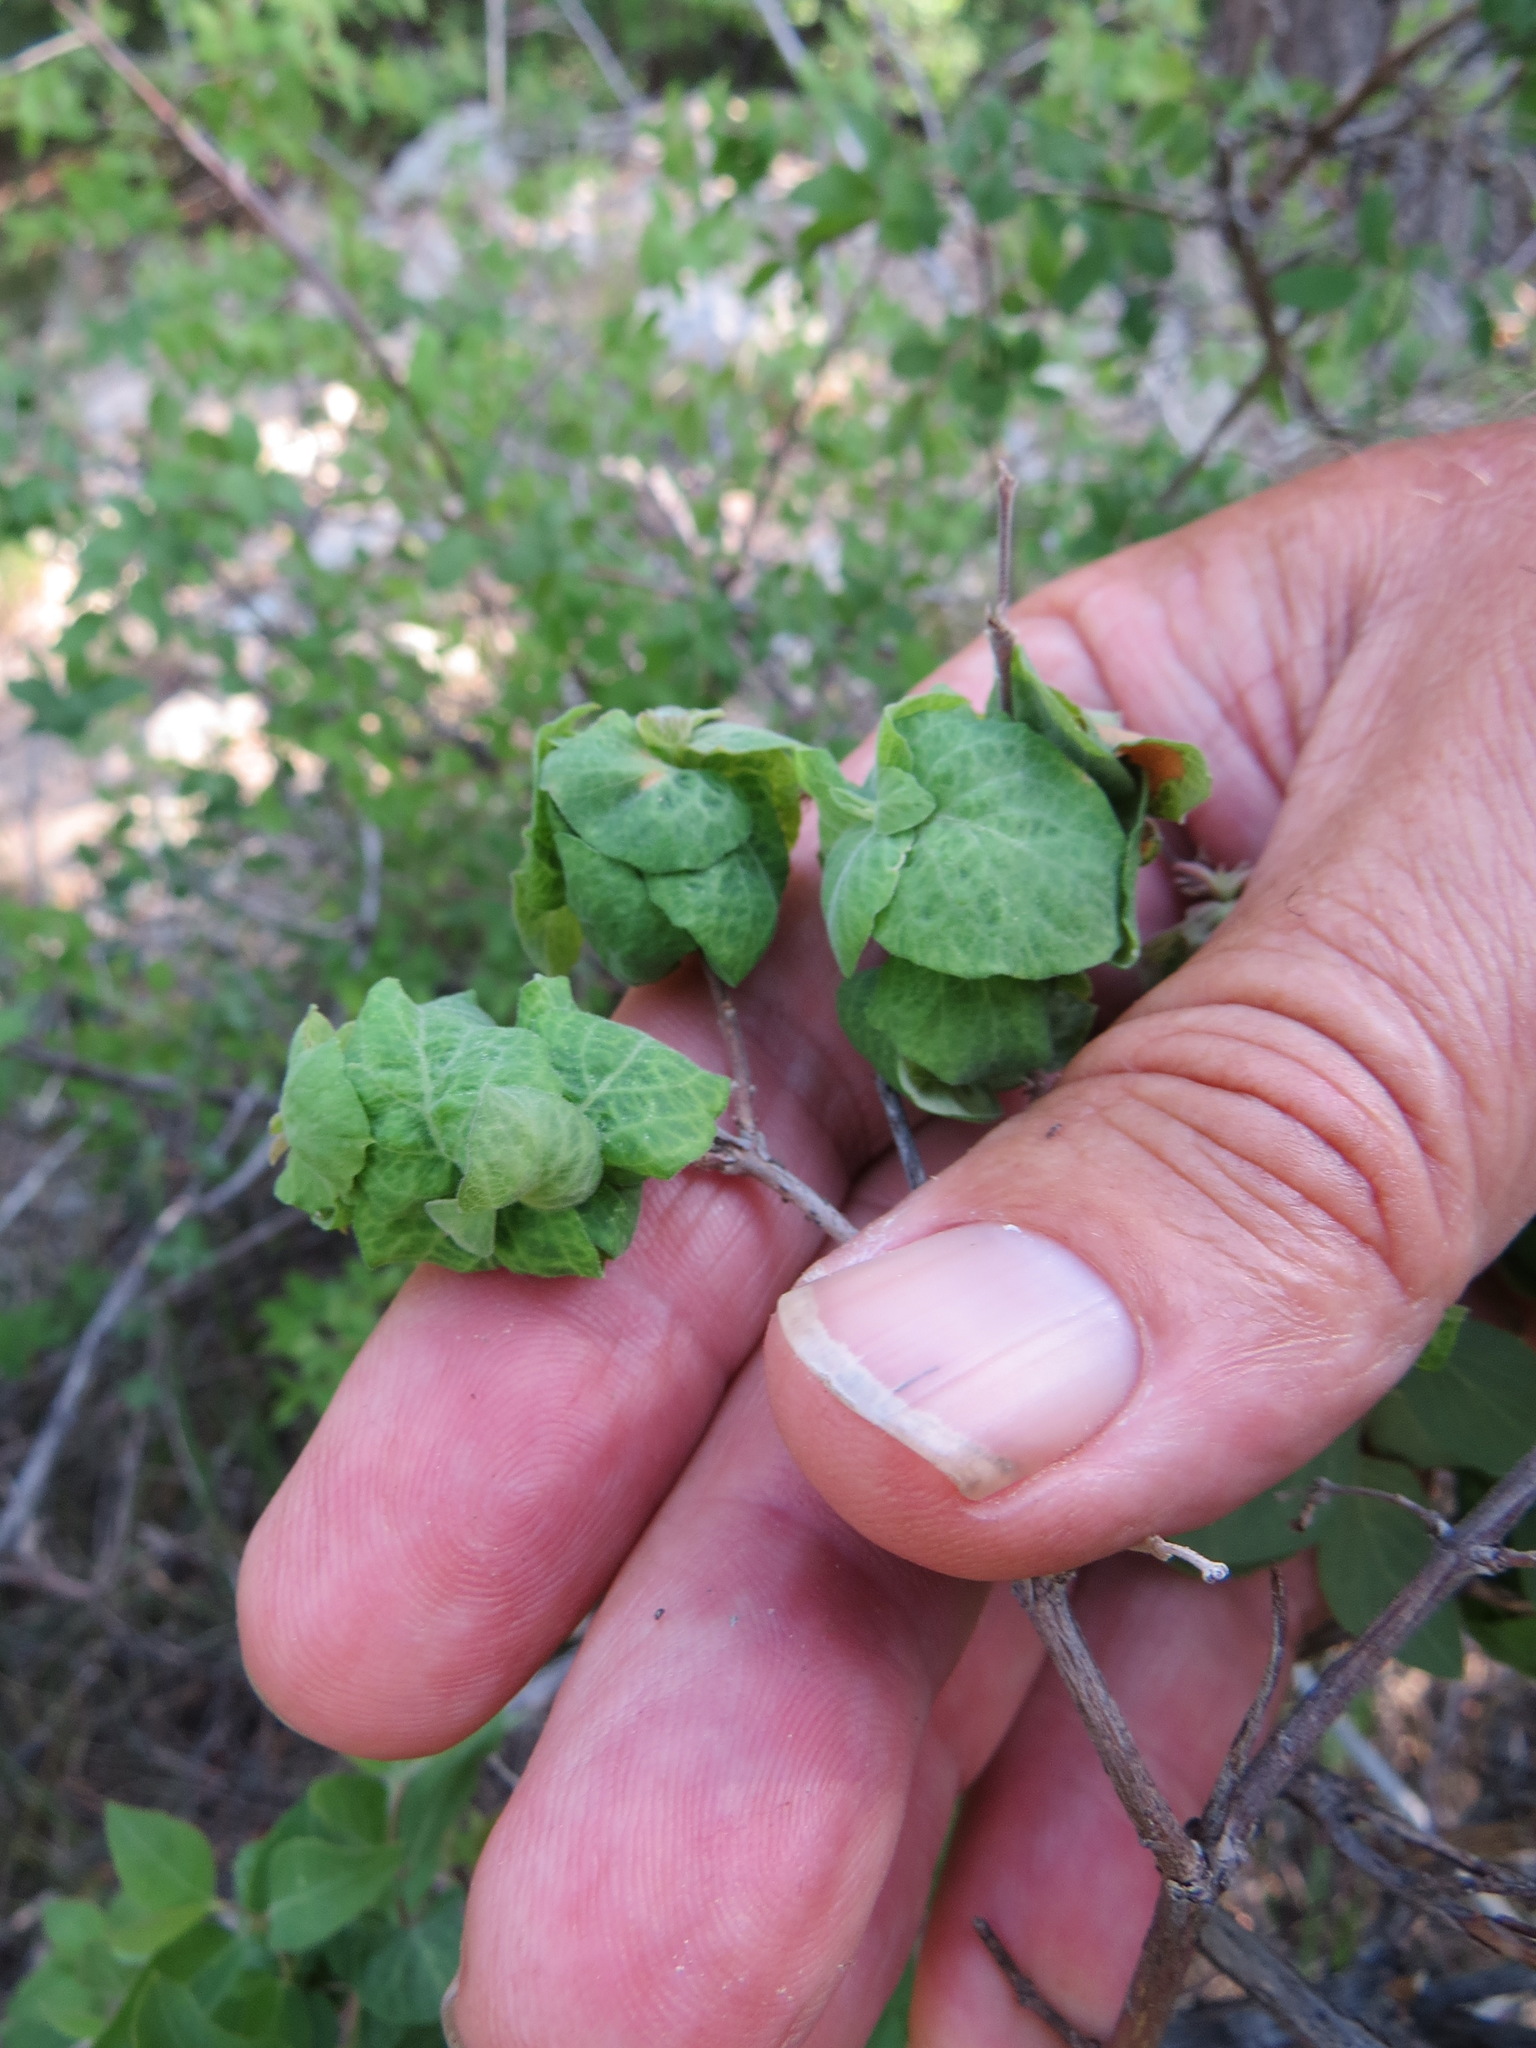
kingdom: Plantae
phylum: Tracheophyta
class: Magnoliopsida
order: Dipsacales
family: Caprifoliaceae
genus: Symphoricarpos
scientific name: Symphoricarpos rotundifolius
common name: Round-leaved snowberry
